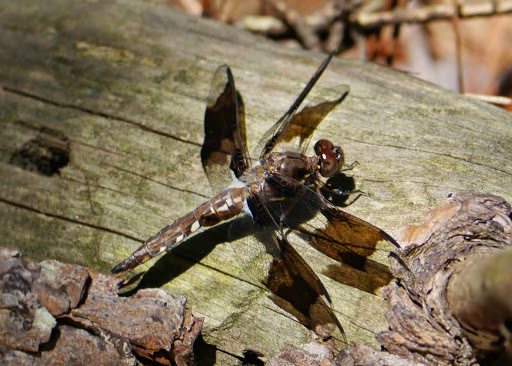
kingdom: Animalia
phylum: Arthropoda
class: Insecta
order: Odonata
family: Libellulidae
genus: Plathemis
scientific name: Plathemis lydia
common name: Common whitetail
